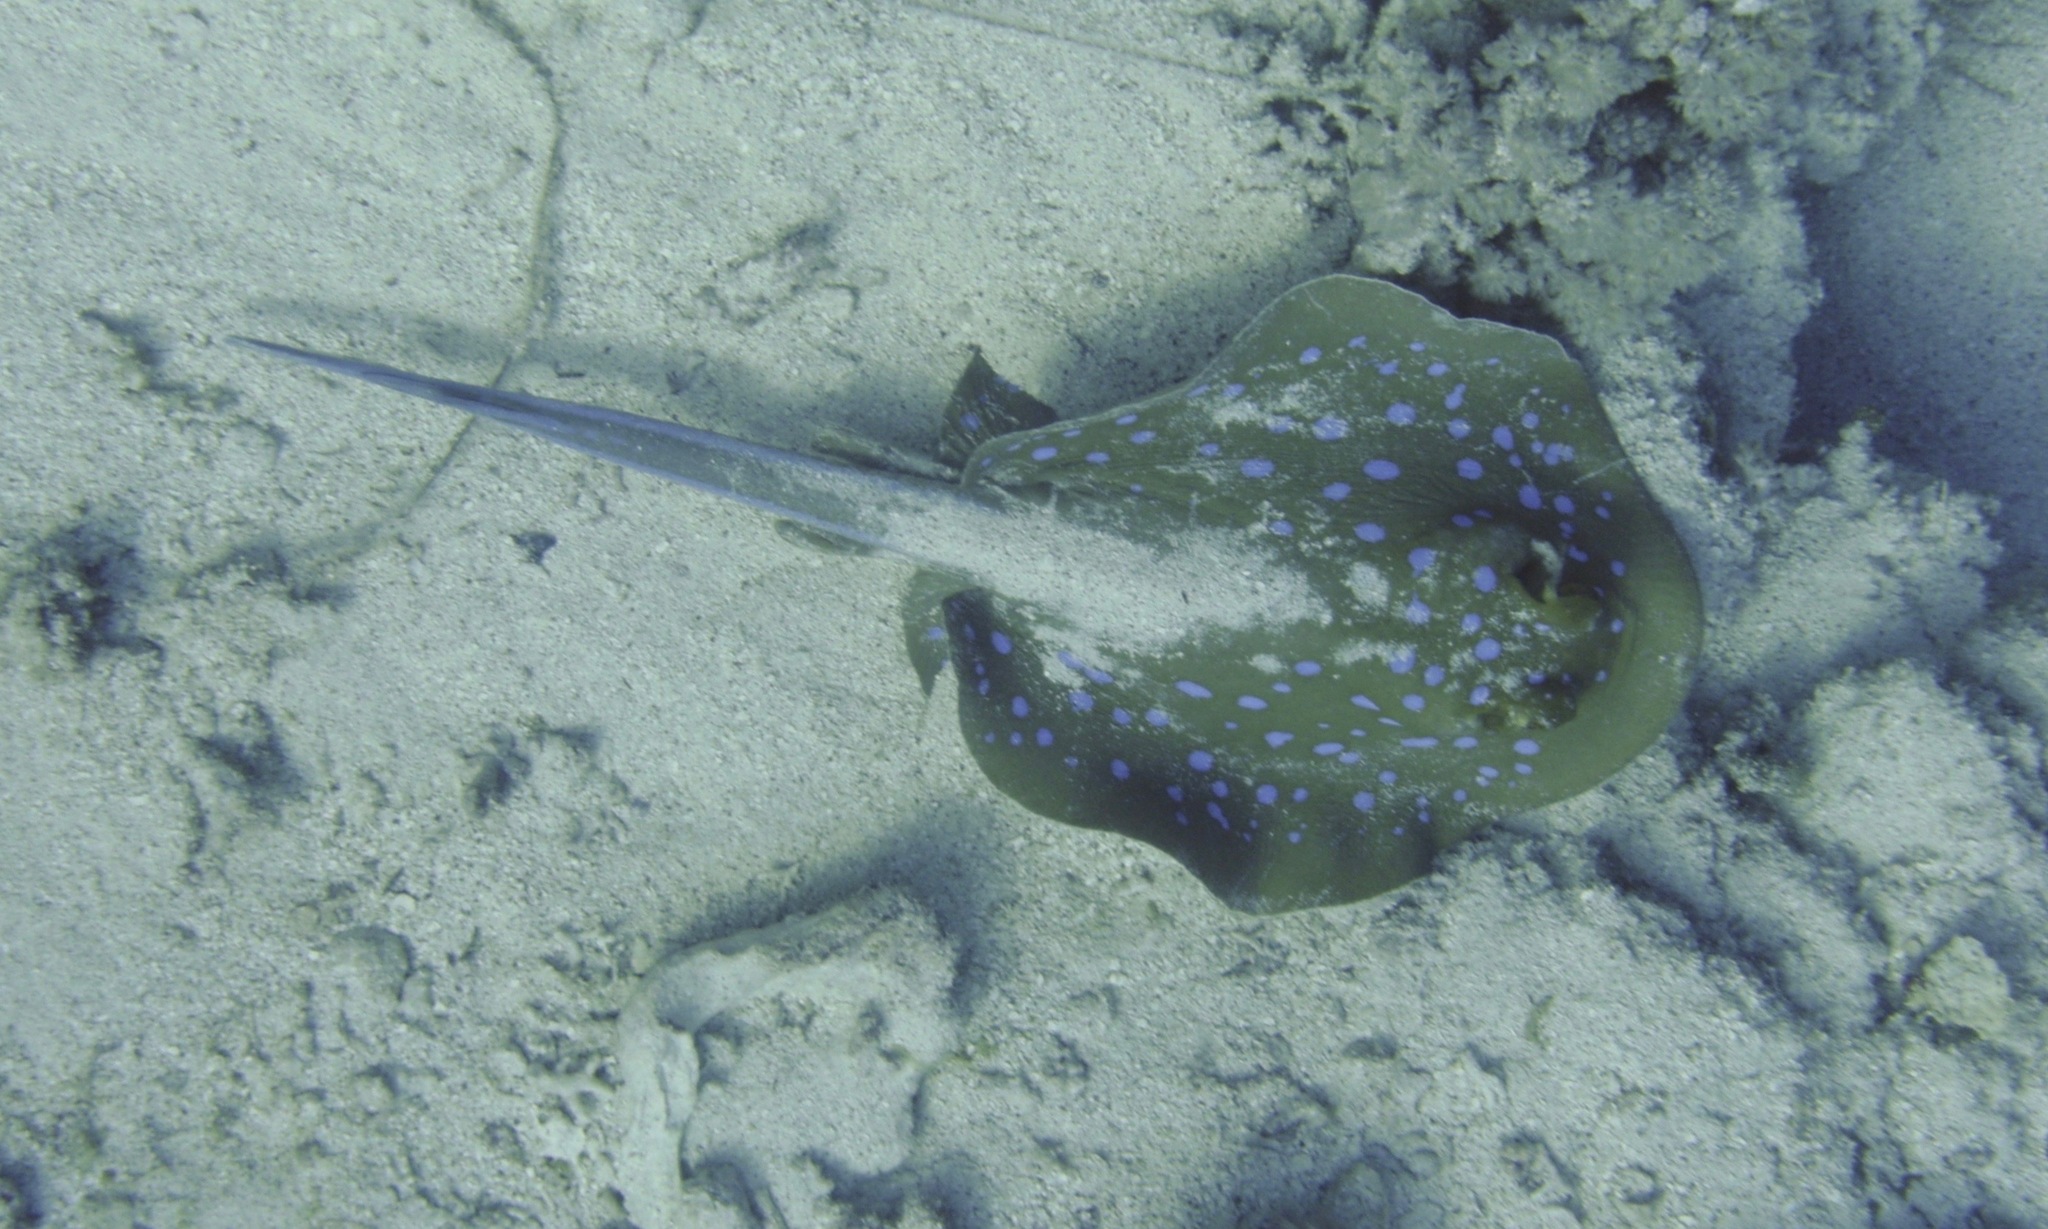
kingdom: Animalia
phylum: Chordata
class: Elasmobranchii
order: Myliobatiformes
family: Dasyatidae
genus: Taeniura
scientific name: Taeniura lymma
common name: Bluespotted ribbontail ray
